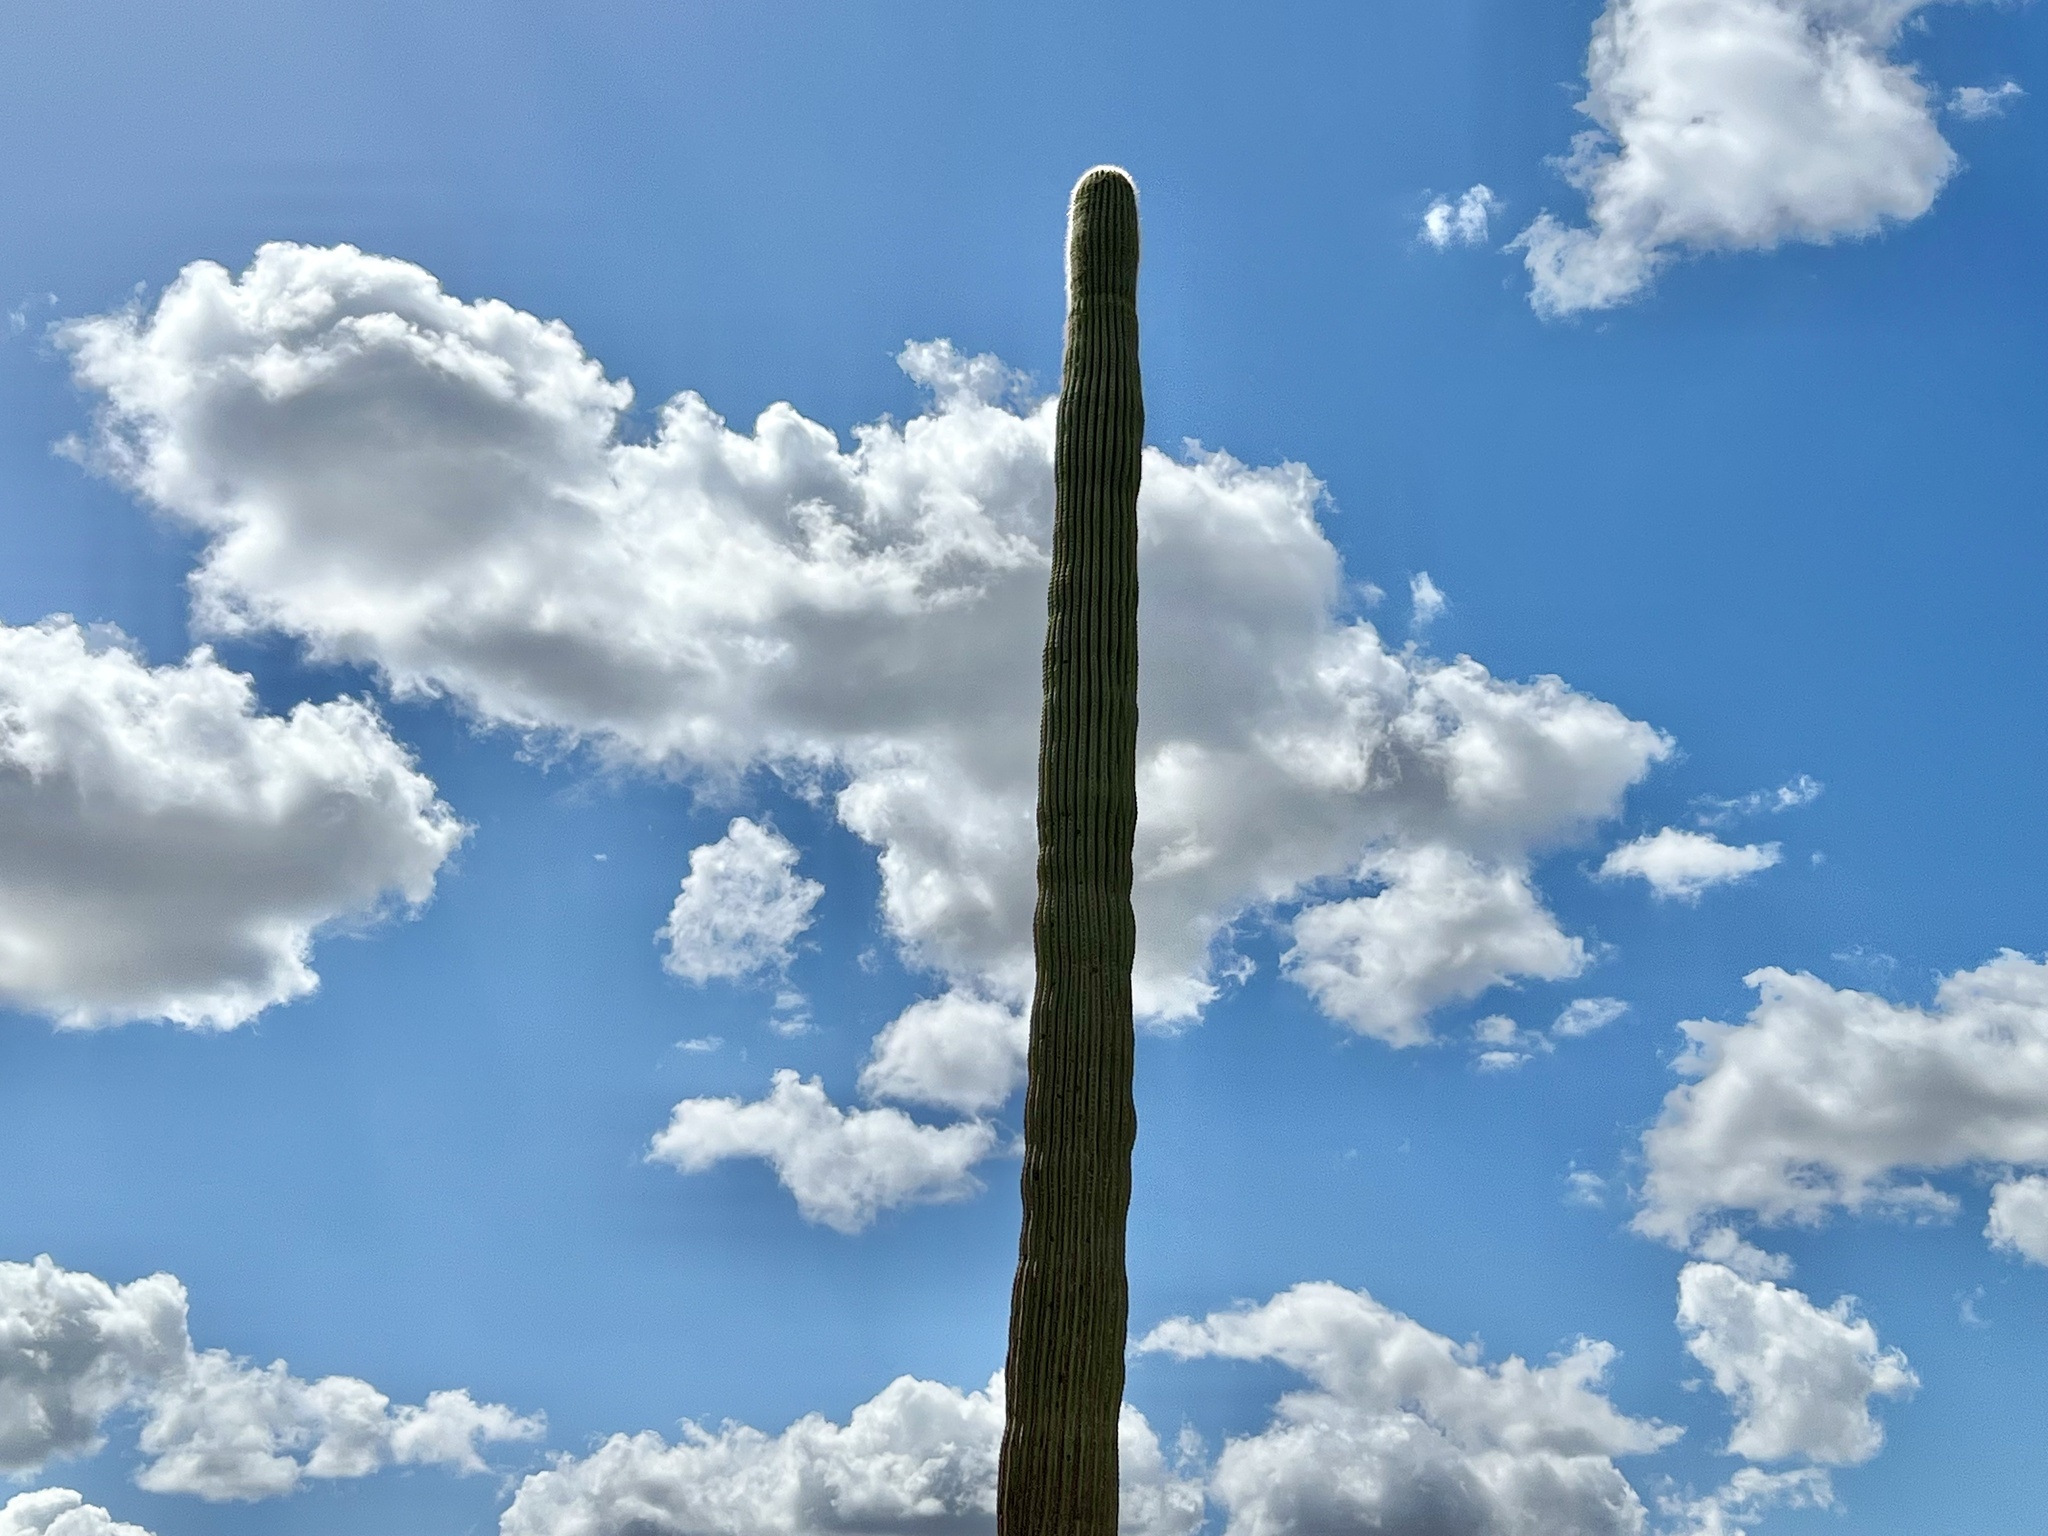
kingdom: Plantae
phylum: Tracheophyta
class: Magnoliopsida
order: Caryophyllales
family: Cactaceae
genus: Carnegiea
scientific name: Carnegiea gigantea
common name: Saguaro
